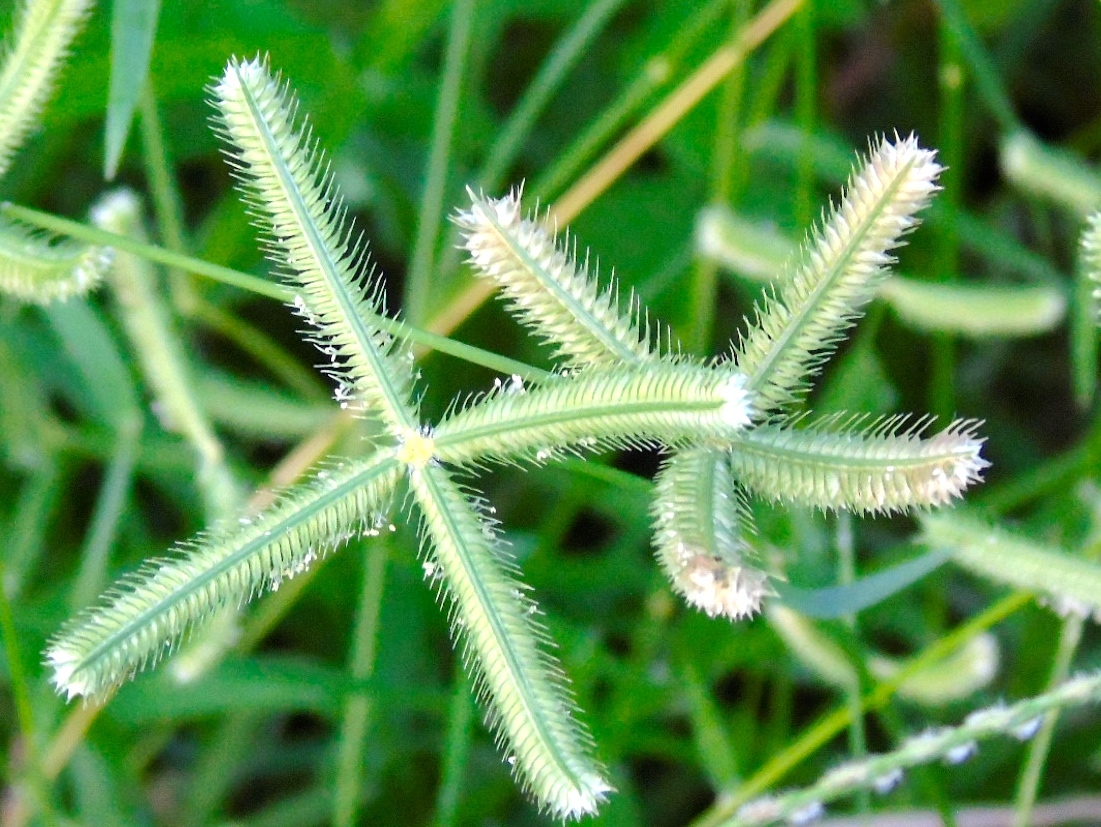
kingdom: Plantae
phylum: Tracheophyta
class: Liliopsida
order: Poales
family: Poaceae
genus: Dactyloctenium
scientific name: Dactyloctenium aegyptium
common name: Egyptian grass
